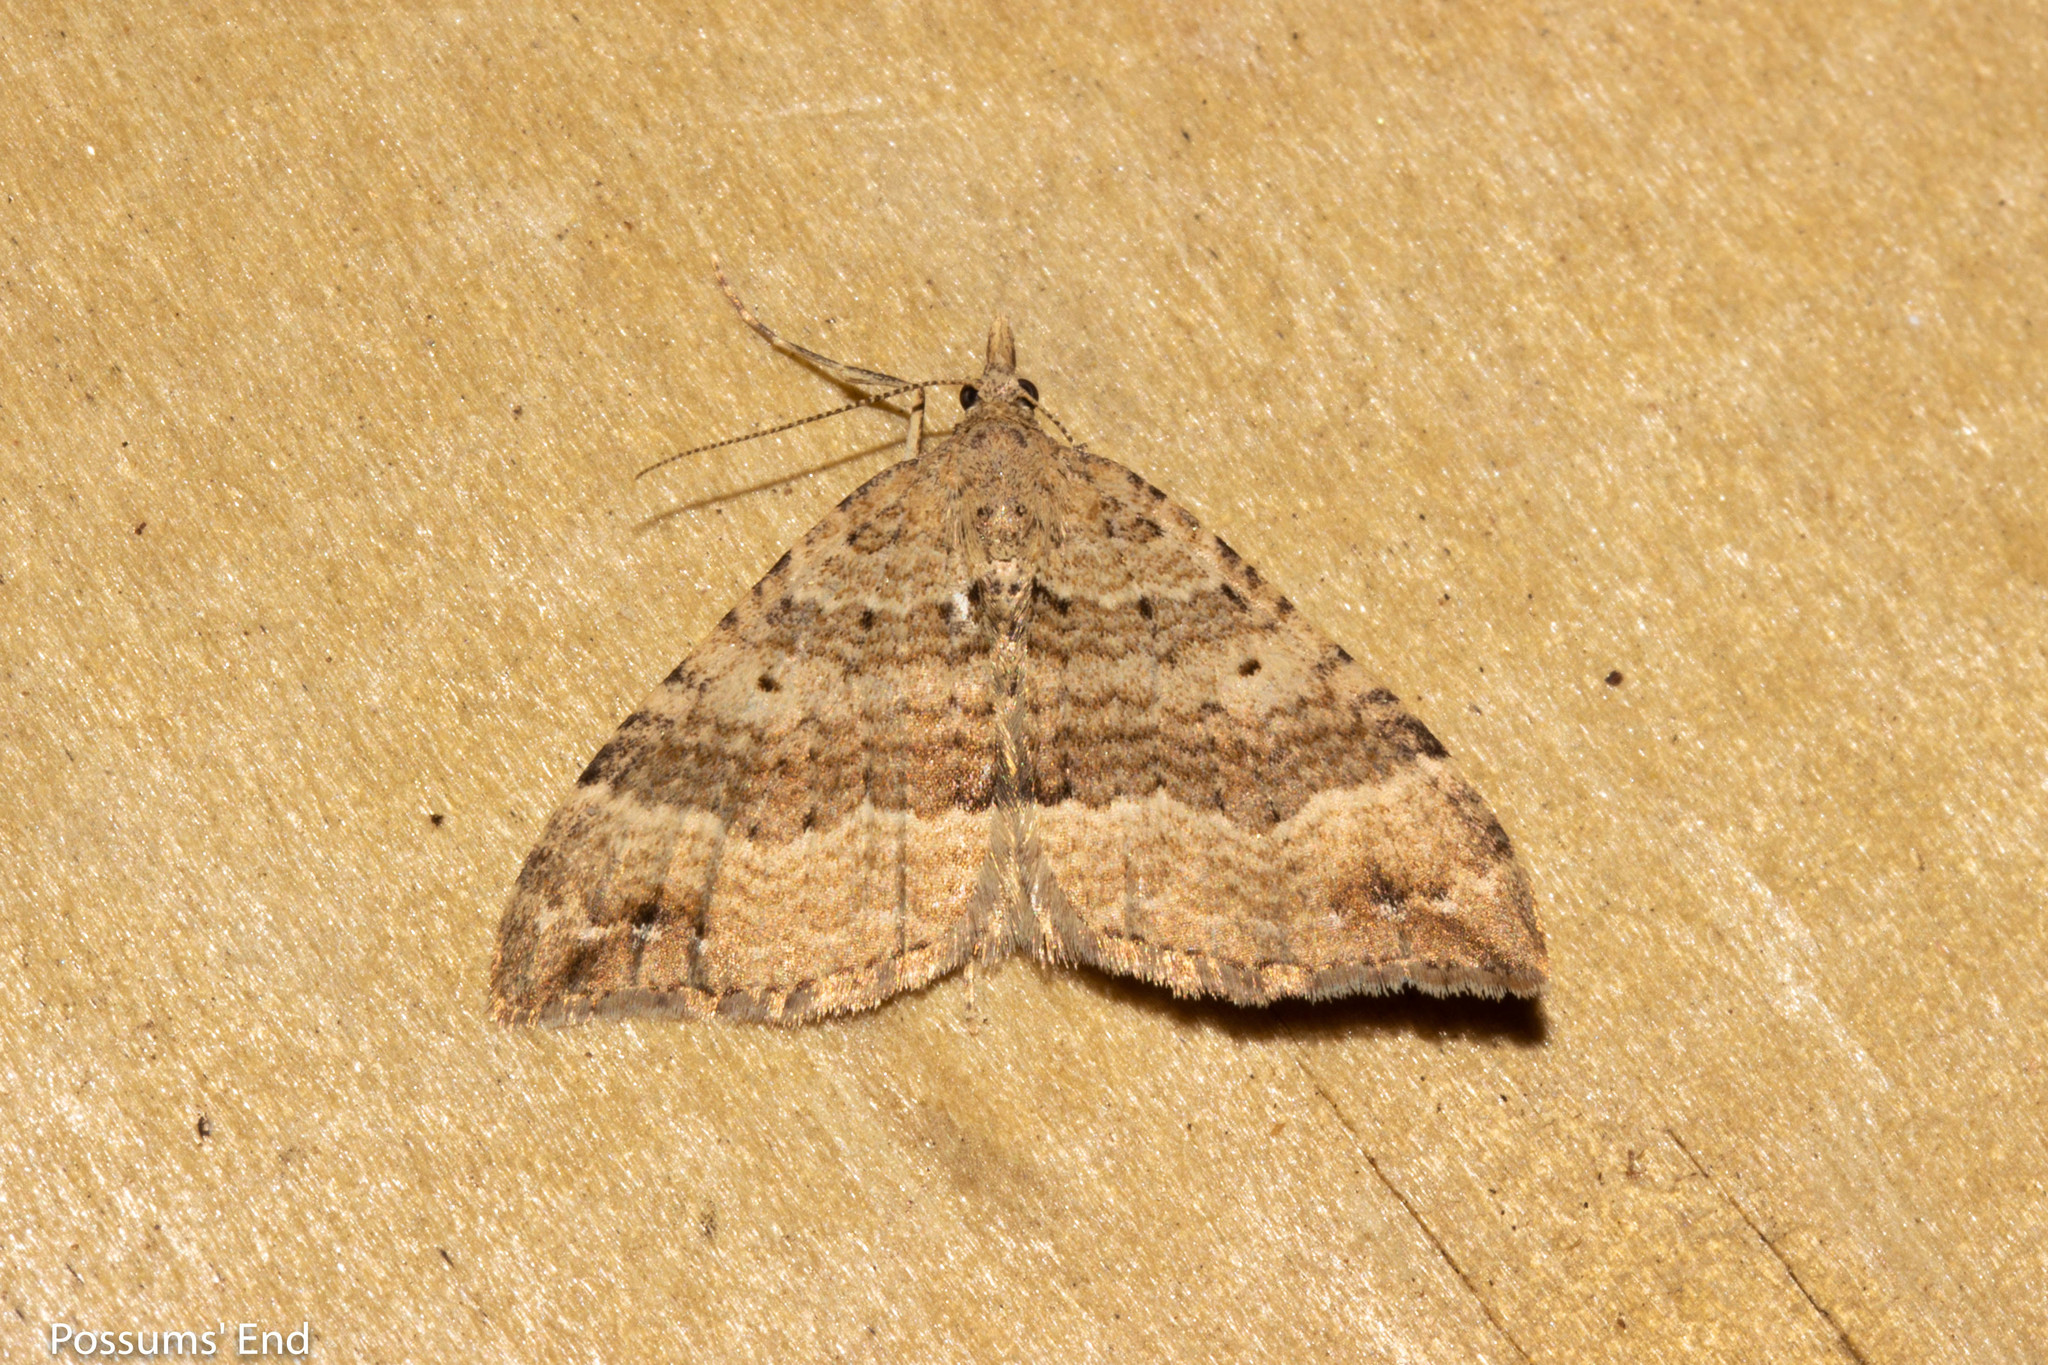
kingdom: Animalia
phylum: Arthropoda
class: Insecta
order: Lepidoptera
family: Geometridae
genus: Homodotis
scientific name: Homodotis falcata
